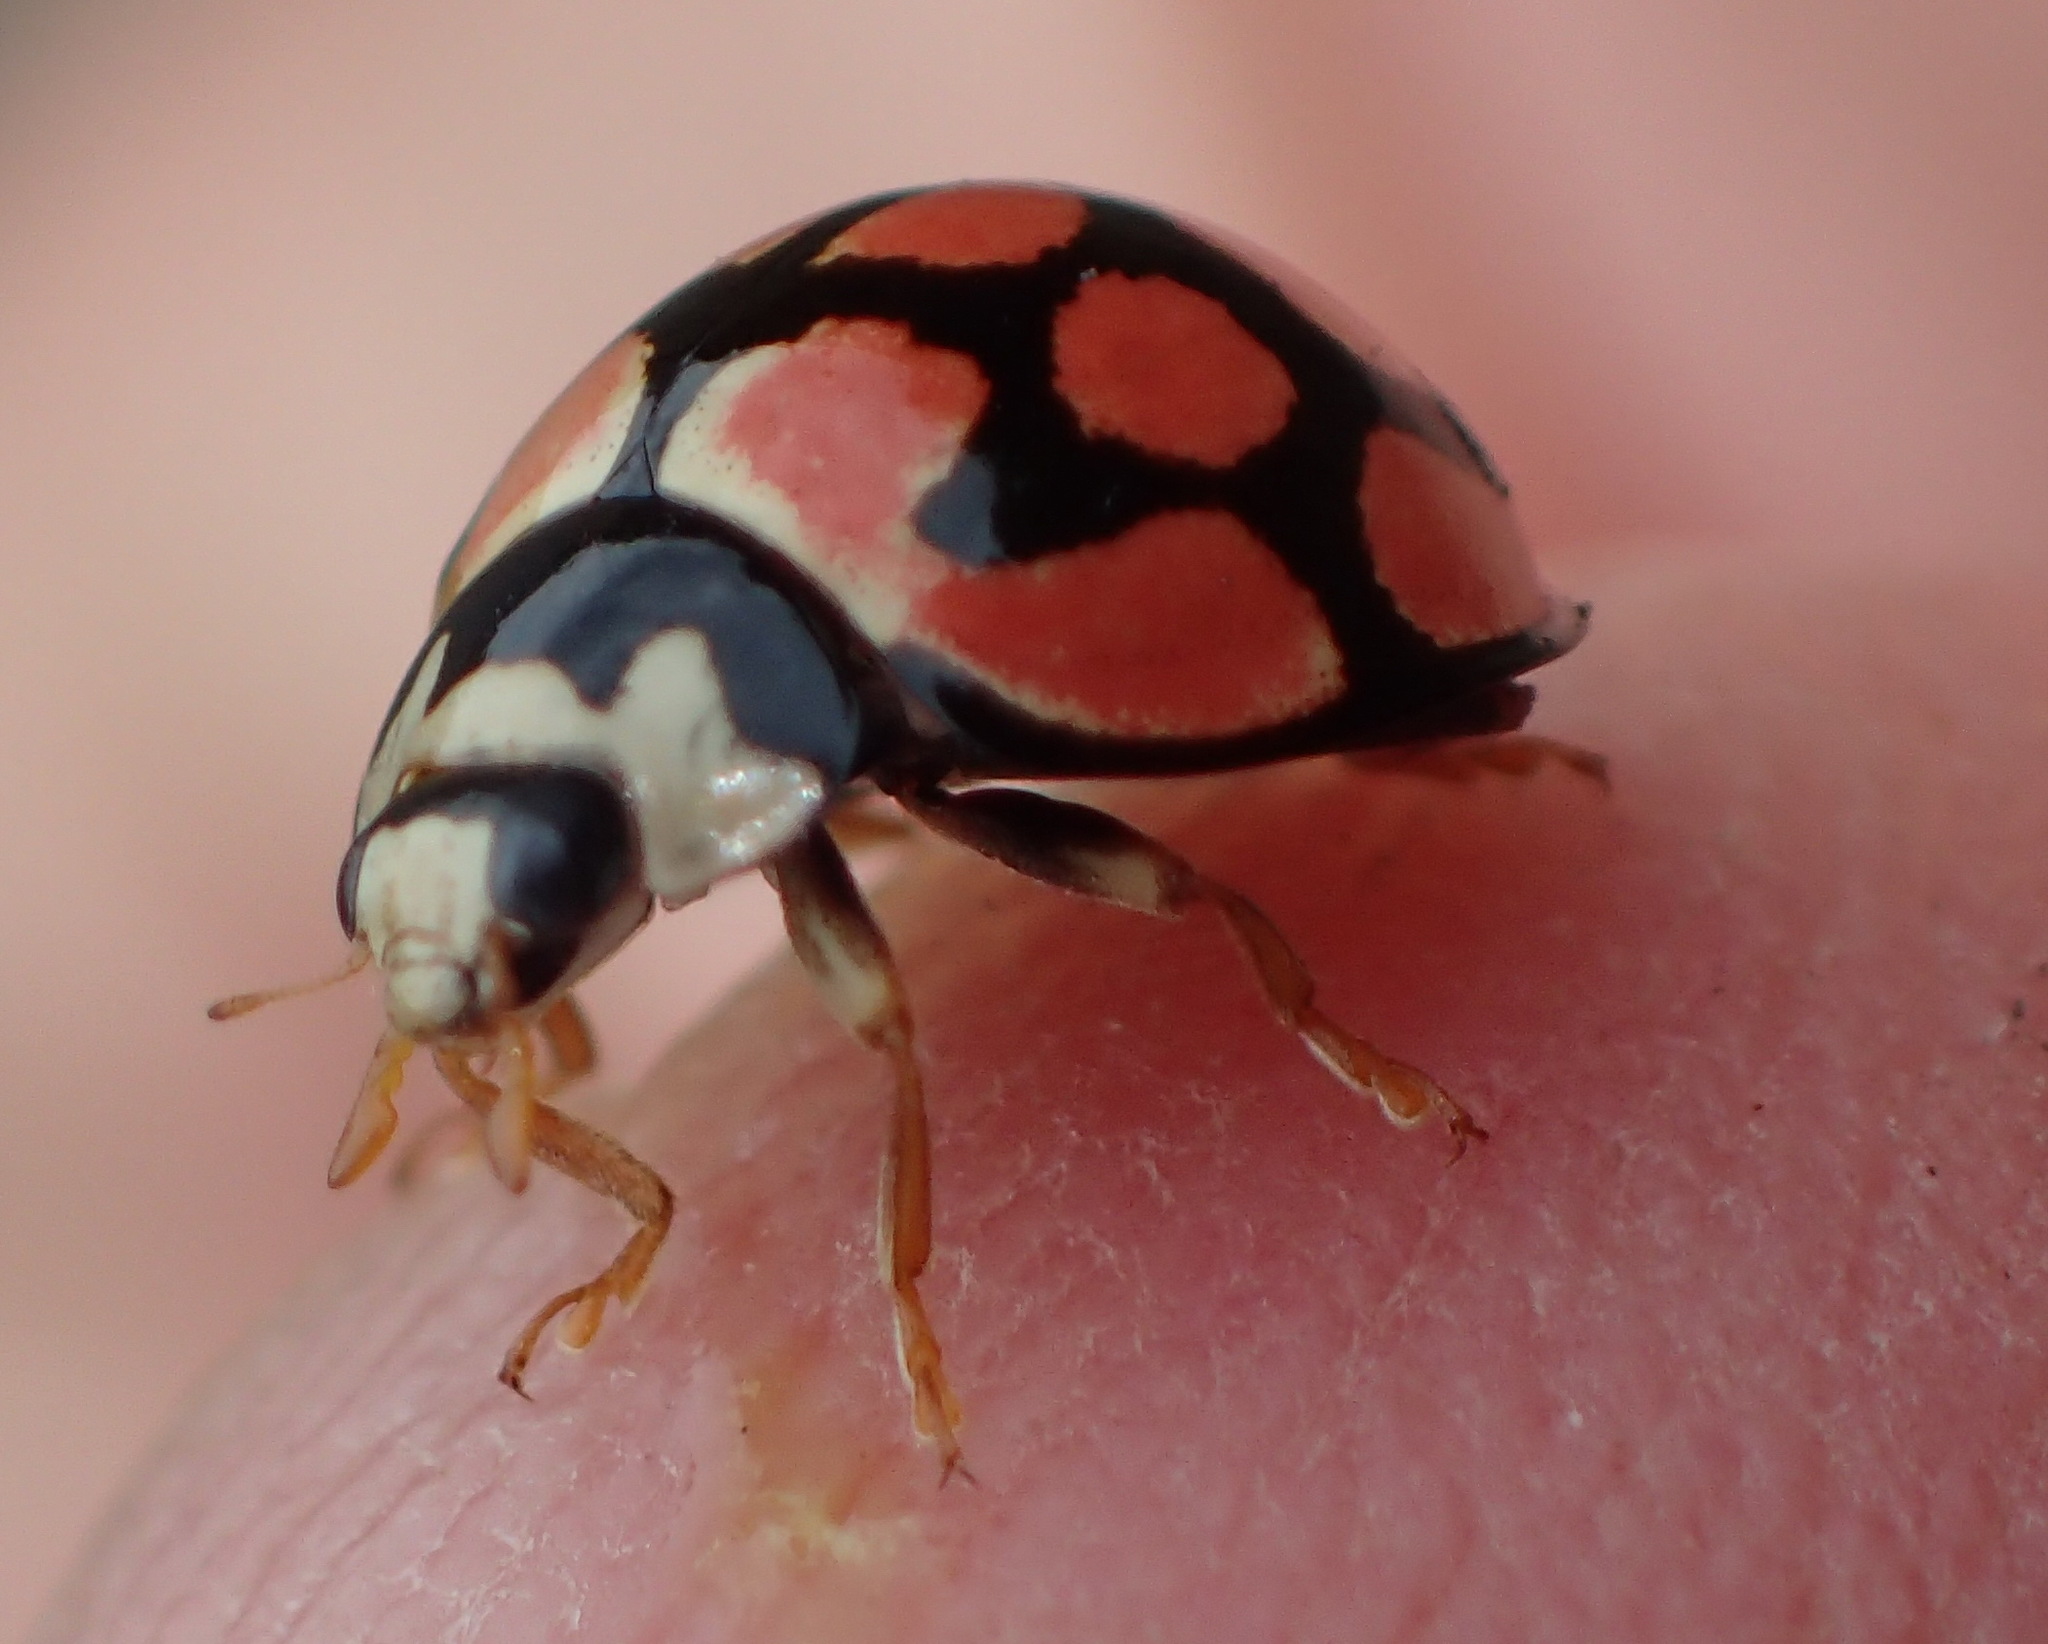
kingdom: Animalia
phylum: Arthropoda
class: Insecta
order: Coleoptera
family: Coccinellidae
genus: Cheilomenes
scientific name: Cheilomenes lunata
